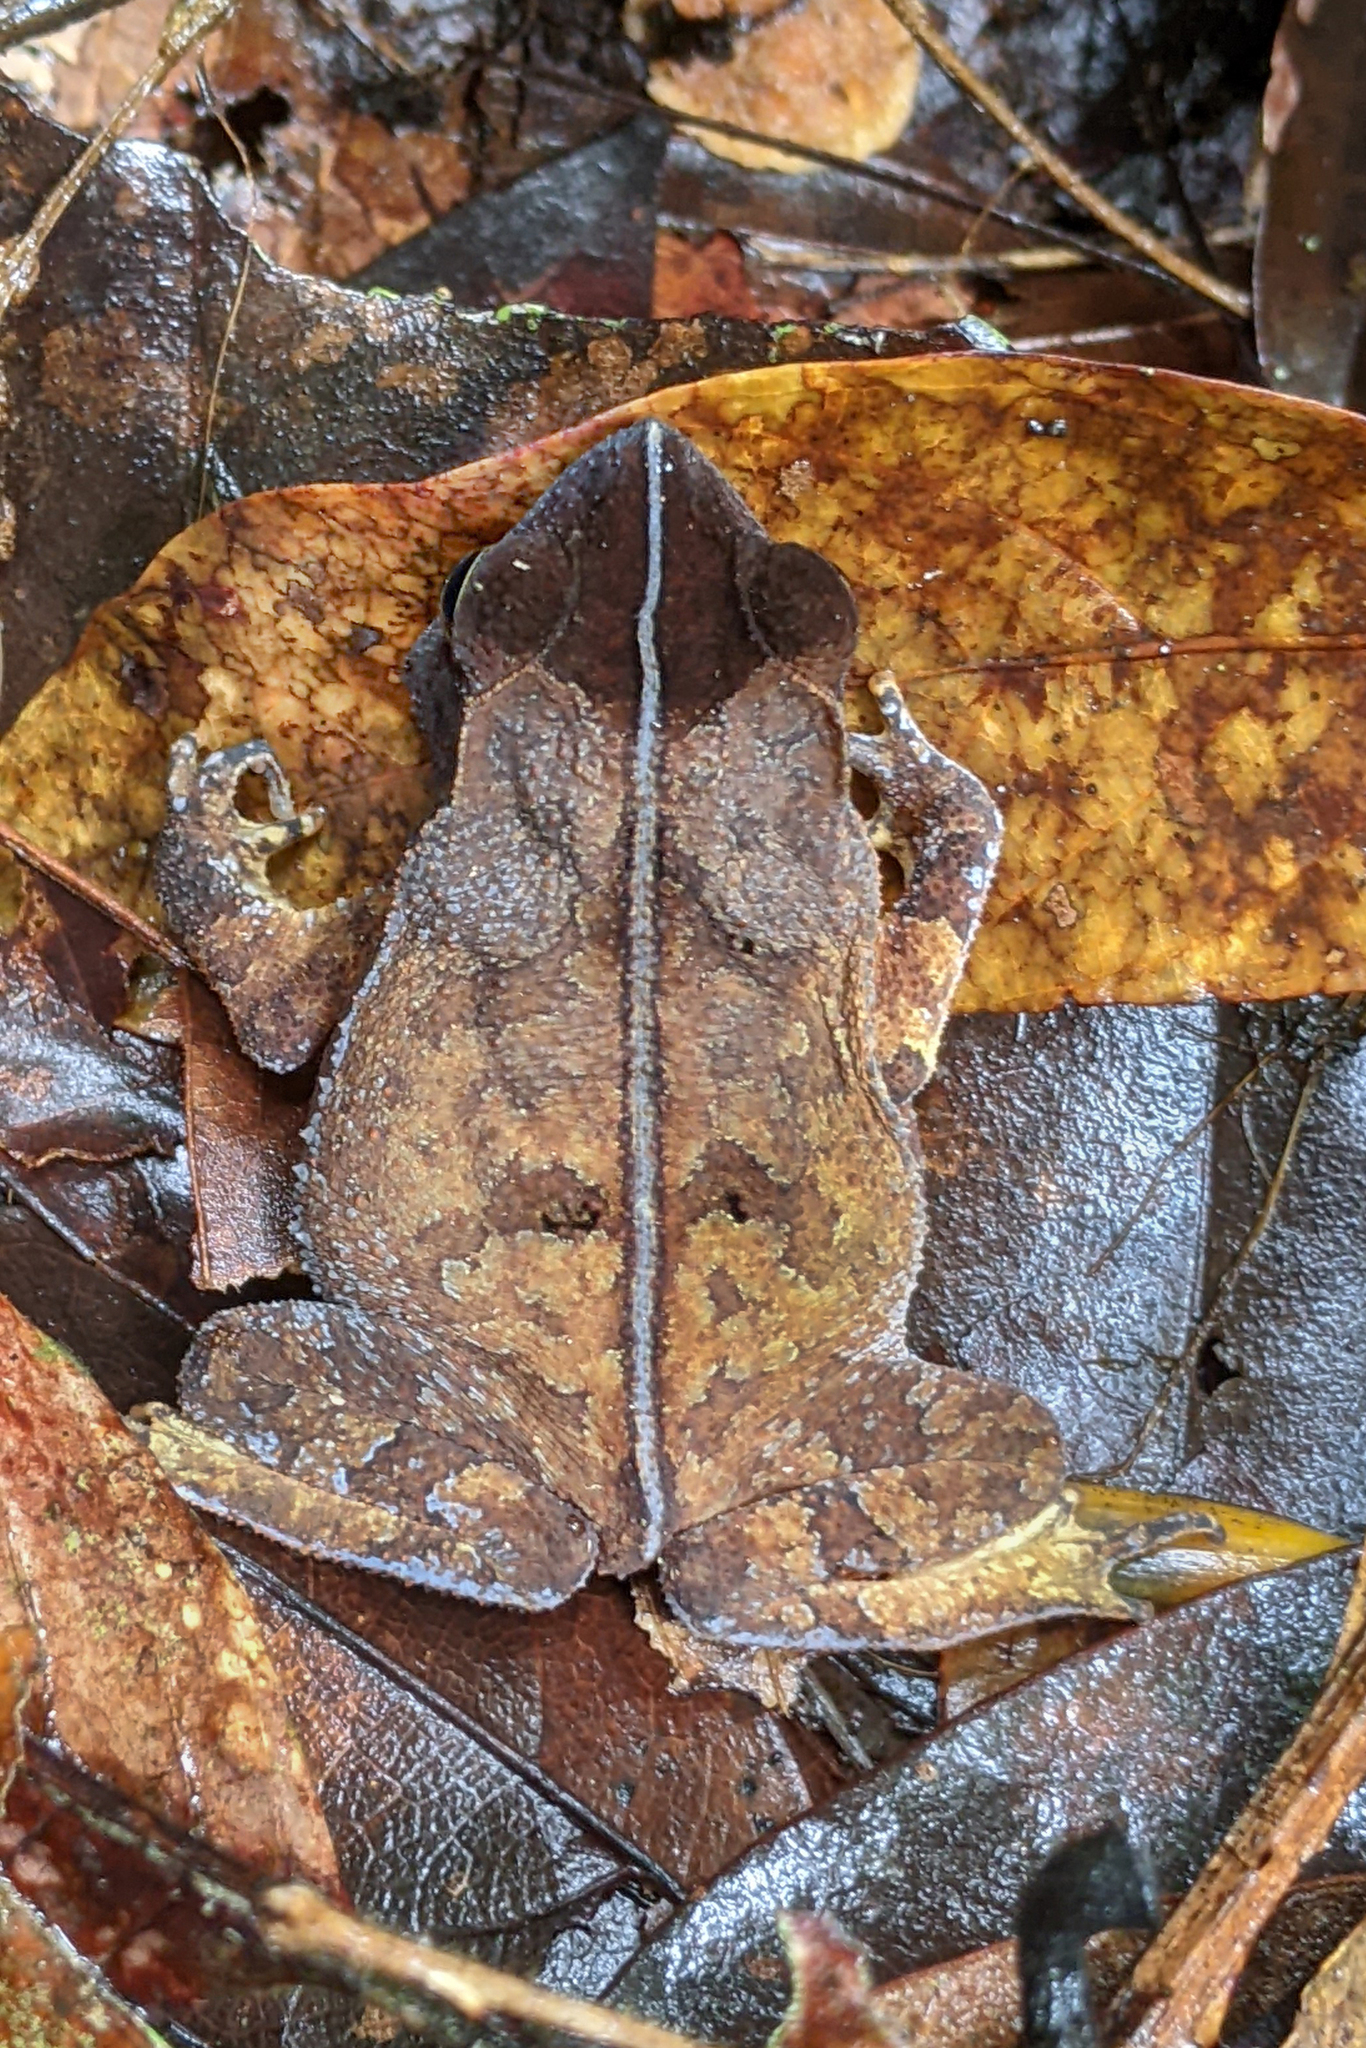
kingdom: Animalia
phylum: Chordata
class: Amphibia
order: Anura
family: Bufonidae
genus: Rhinella
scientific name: Rhinella margaritifera
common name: Mitred toad
